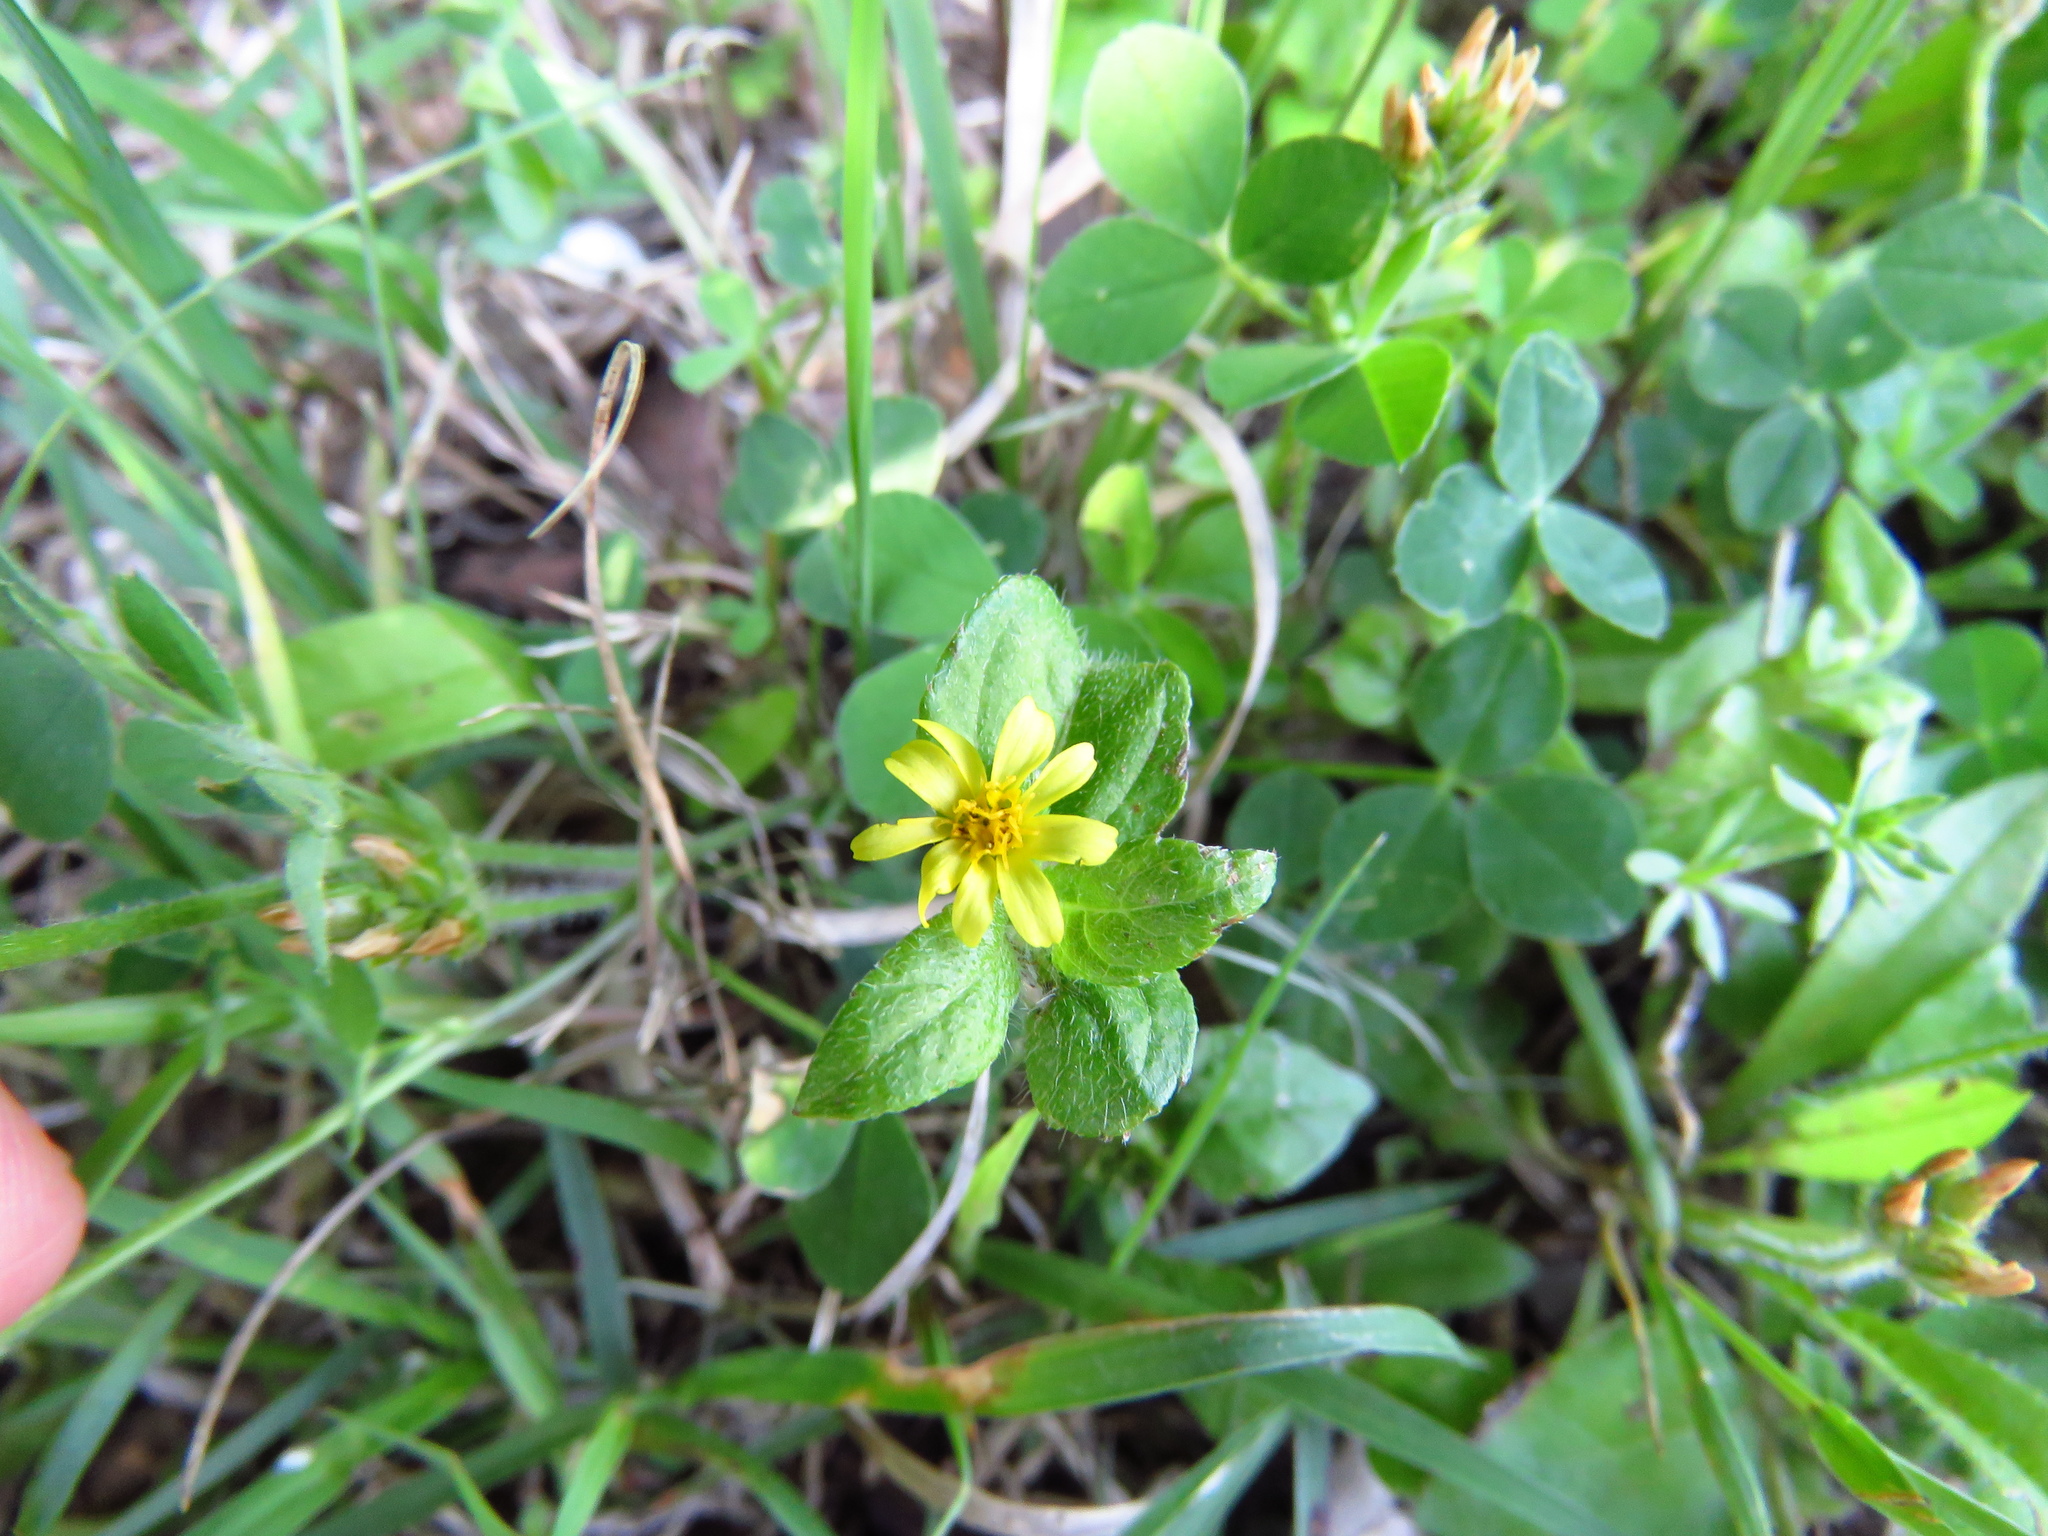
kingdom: Plantae
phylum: Tracheophyta
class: Magnoliopsida
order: Asterales
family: Asteraceae
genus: Calyptocarpus
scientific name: Calyptocarpus vialis
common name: Straggler daisy
